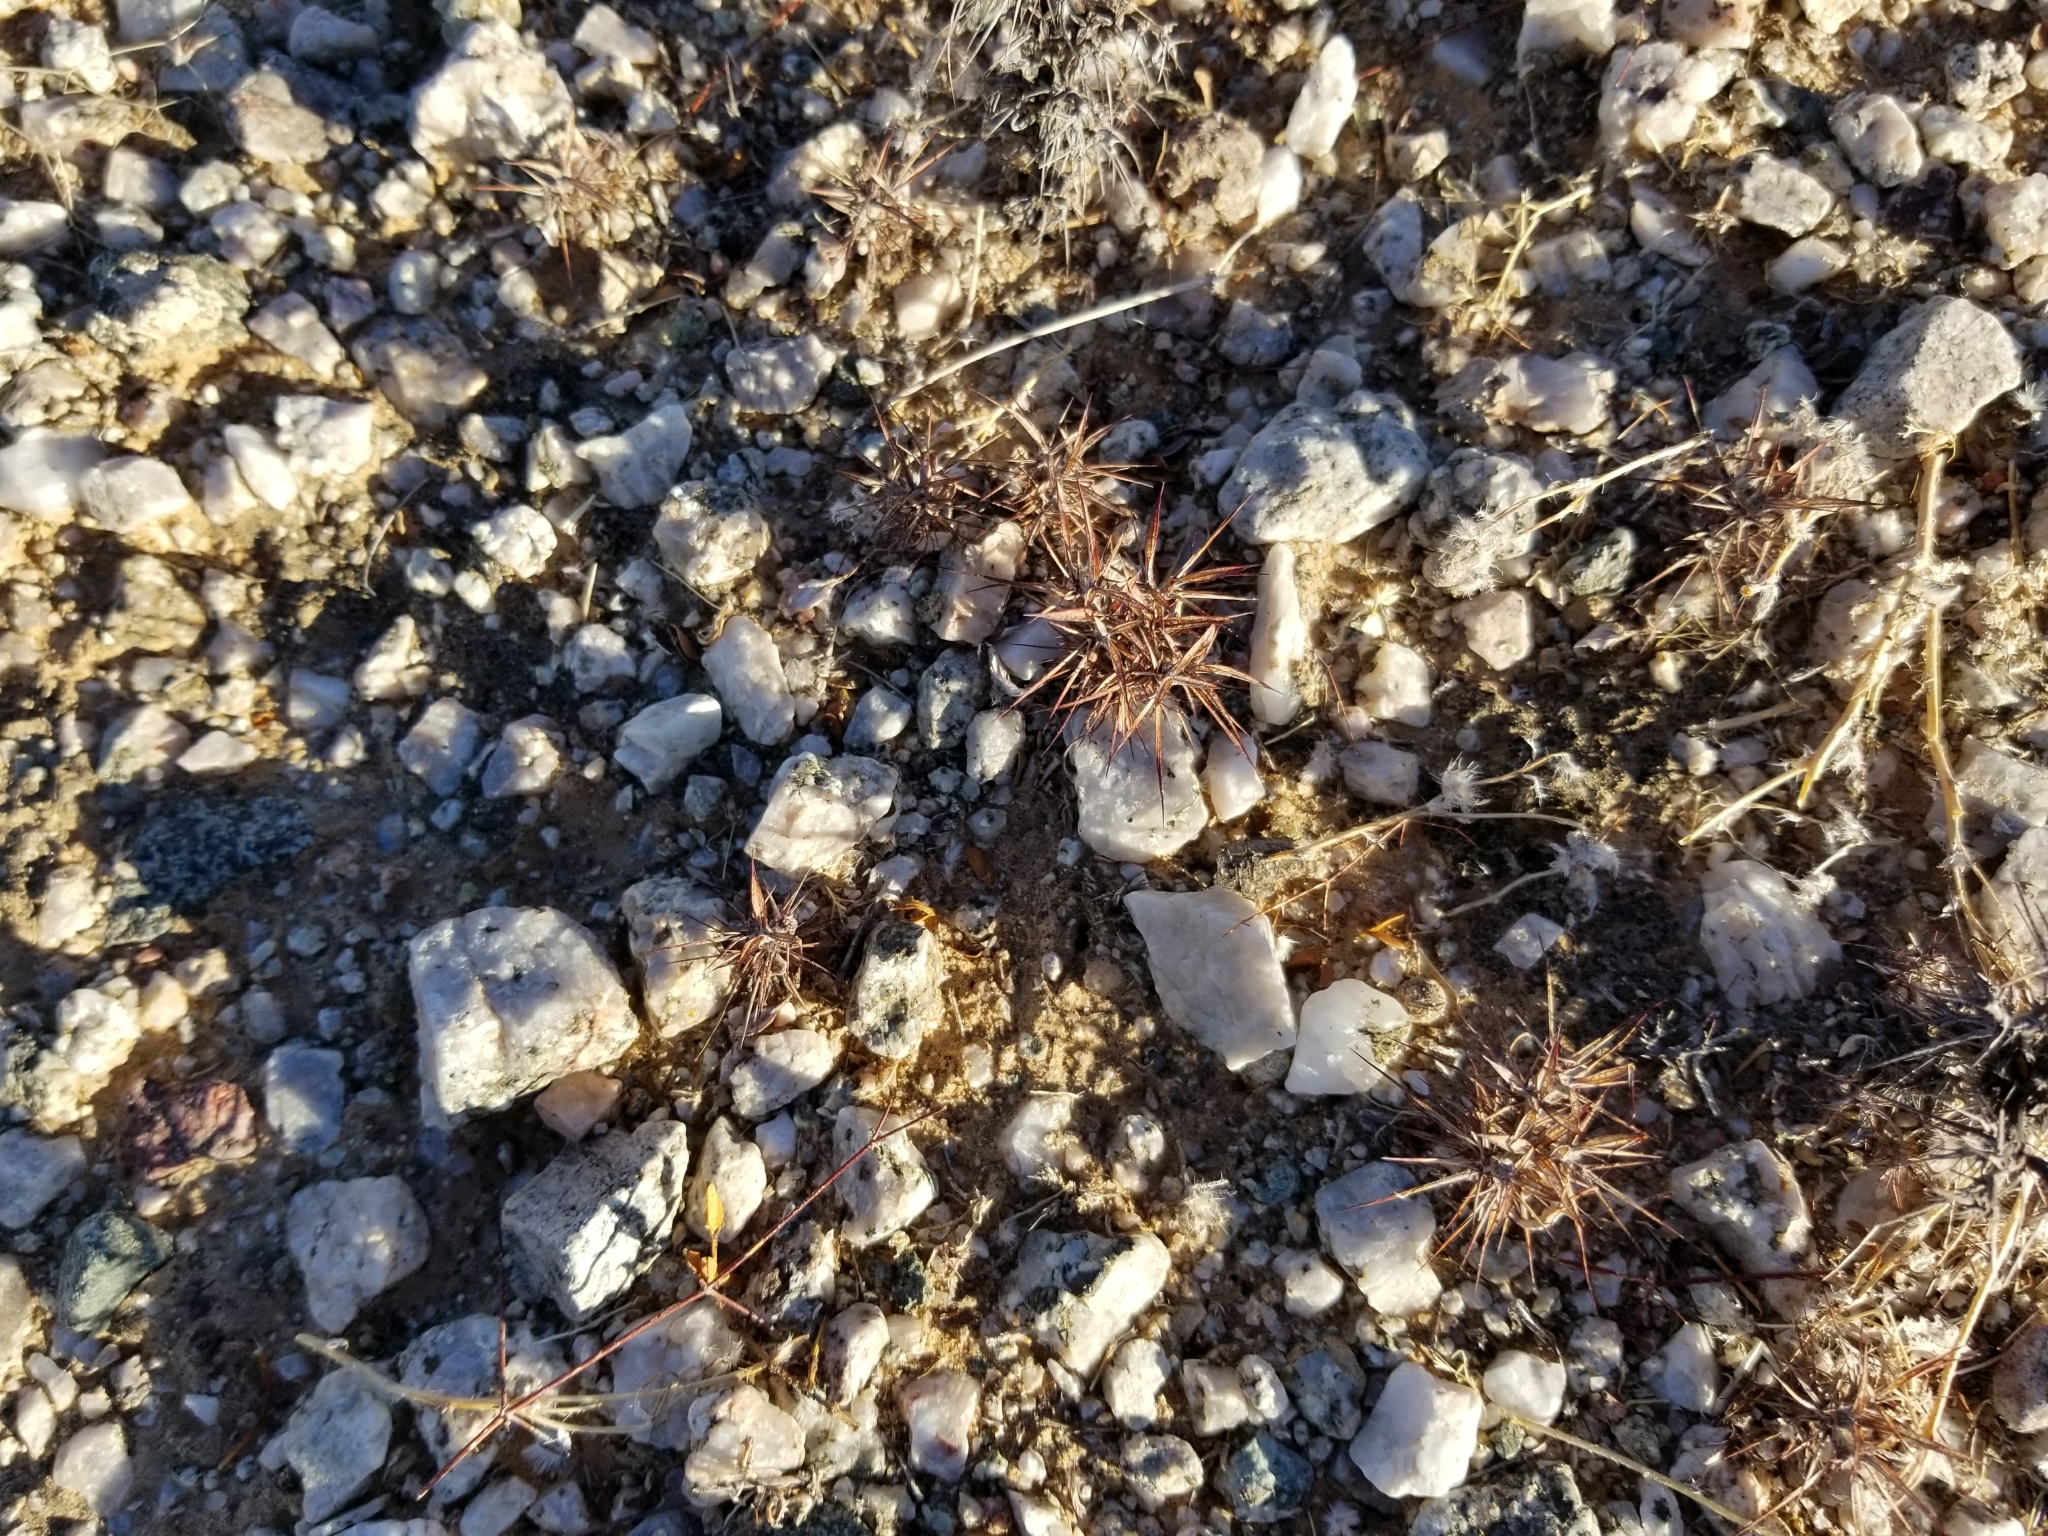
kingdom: Plantae
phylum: Tracheophyta
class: Magnoliopsida
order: Caryophyllales
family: Polygonaceae
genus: Chorizanthe
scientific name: Chorizanthe rigida
